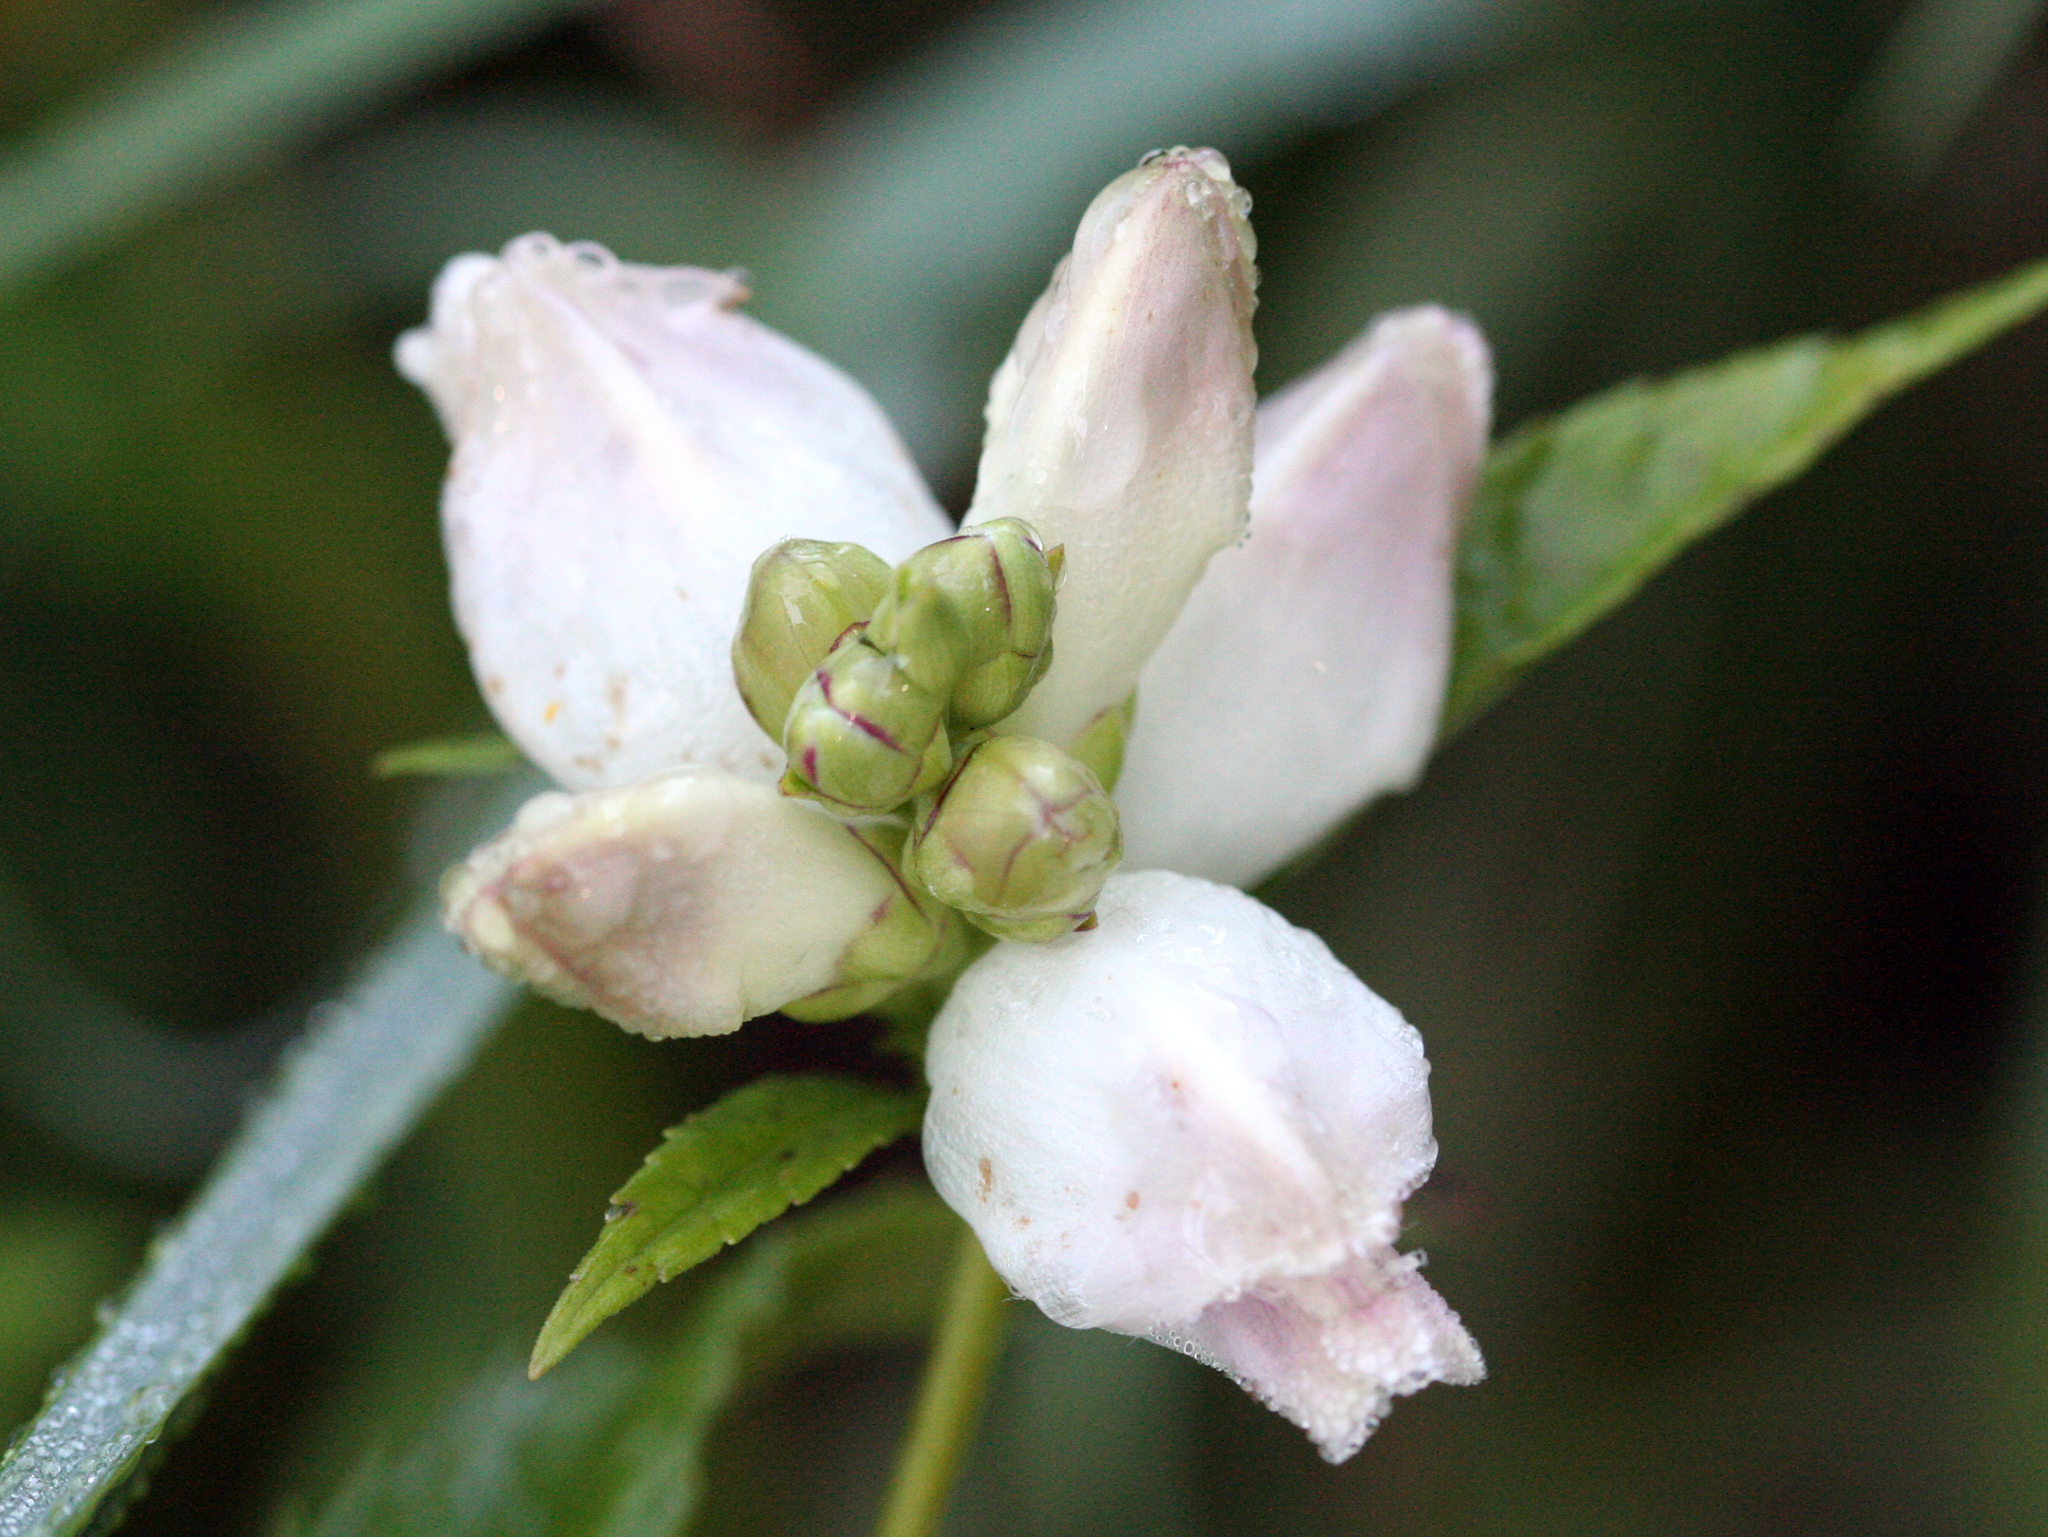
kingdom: Plantae
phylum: Tracheophyta
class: Magnoliopsida
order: Lamiales
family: Plantaginaceae
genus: Chelone
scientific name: Chelone glabra
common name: Snakehead
